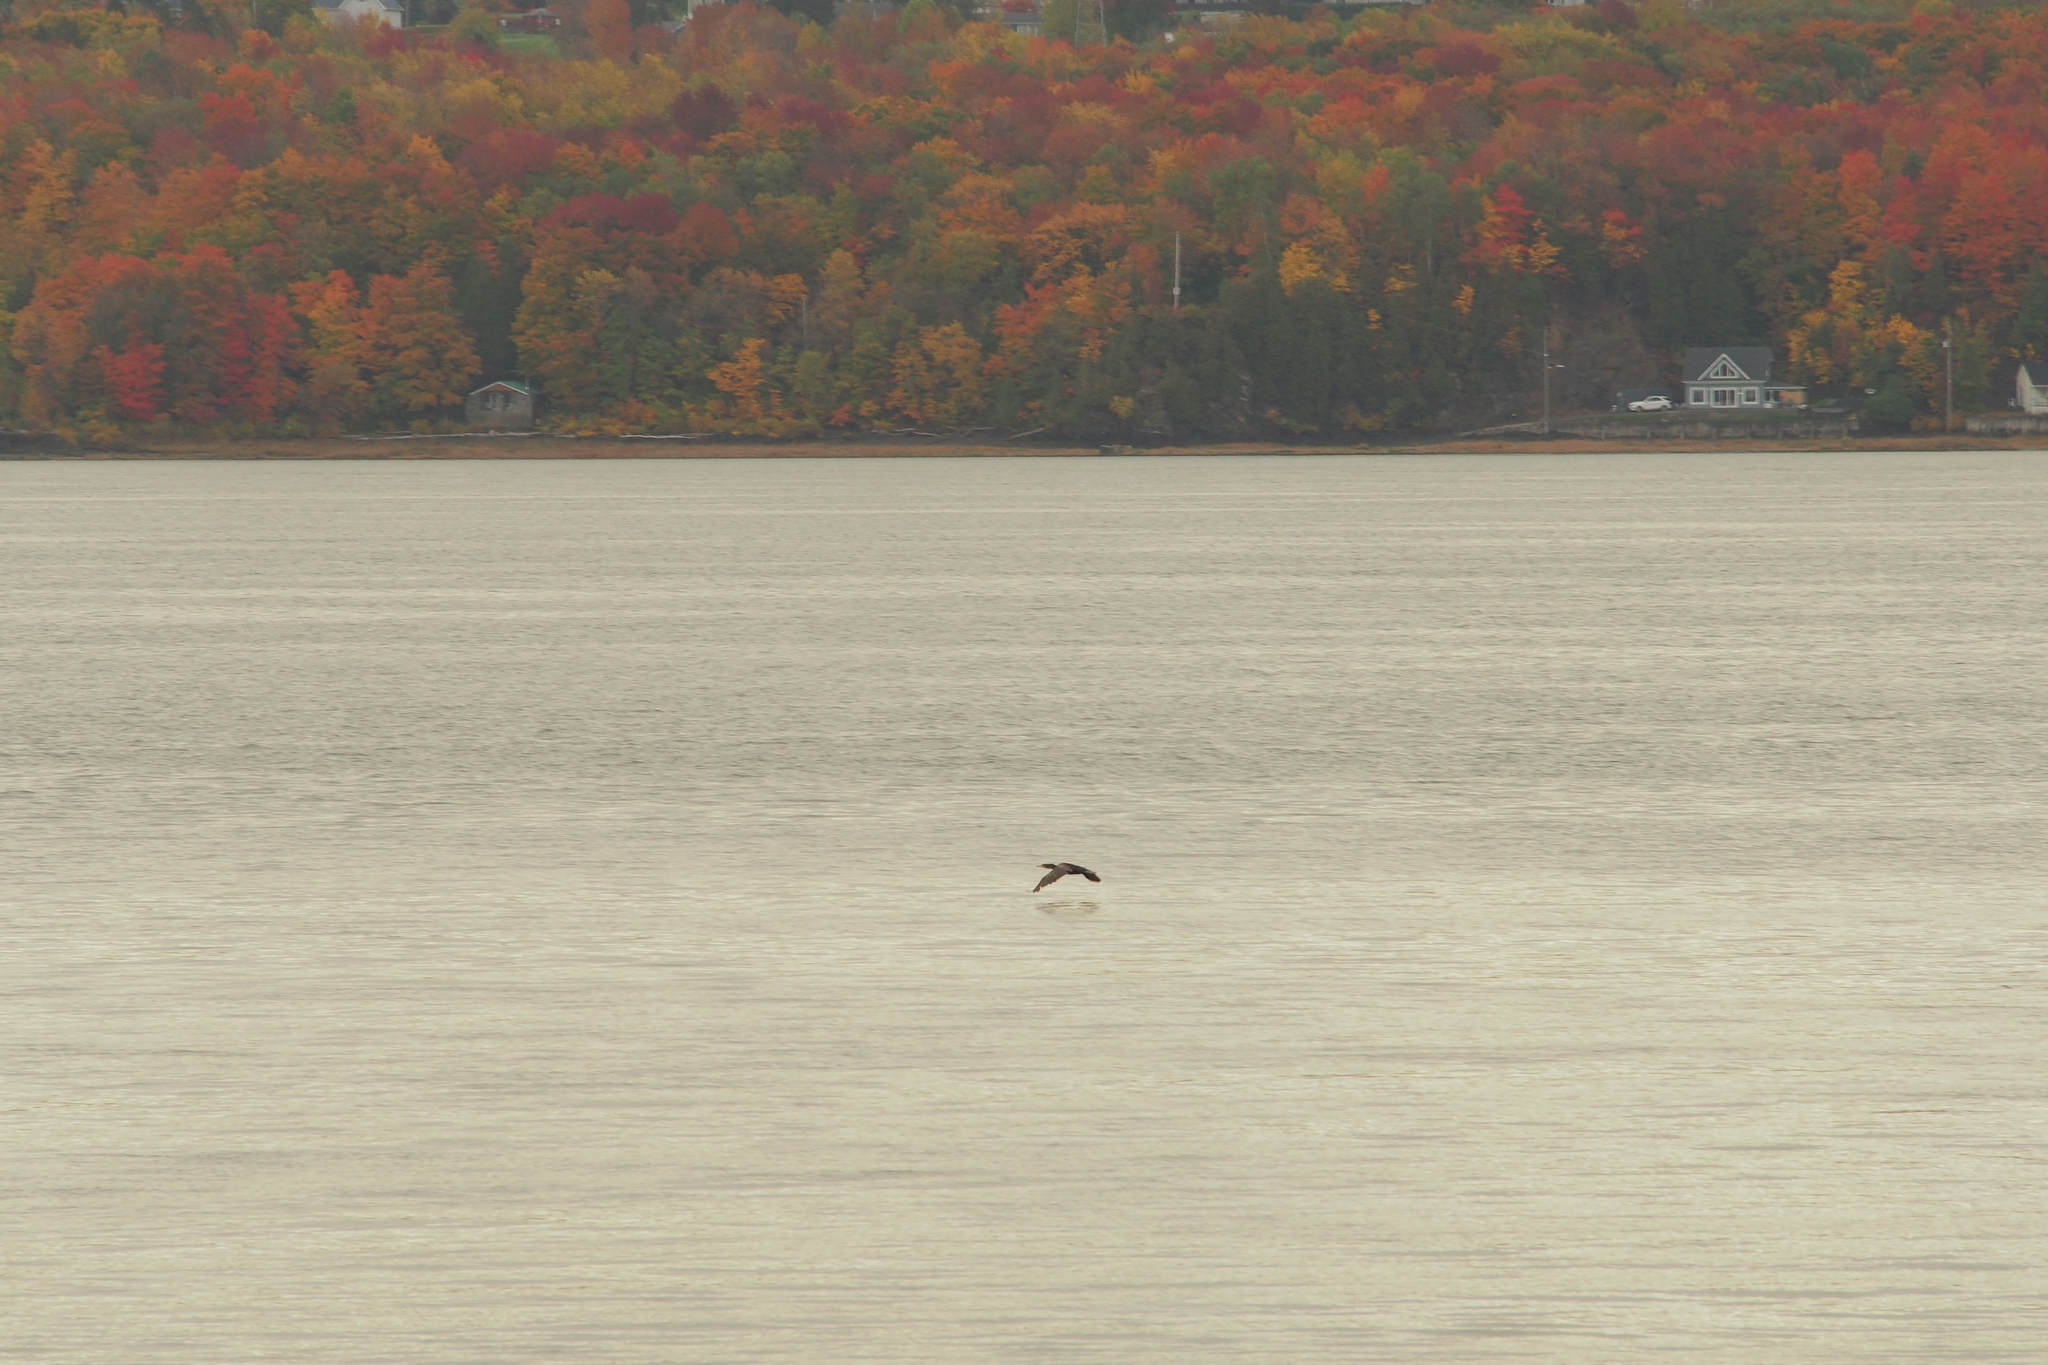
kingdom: Animalia
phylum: Chordata
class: Aves
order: Suliformes
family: Phalacrocoracidae
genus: Phalacrocorax
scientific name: Phalacrocorax auritus
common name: Double-crested cormorant
